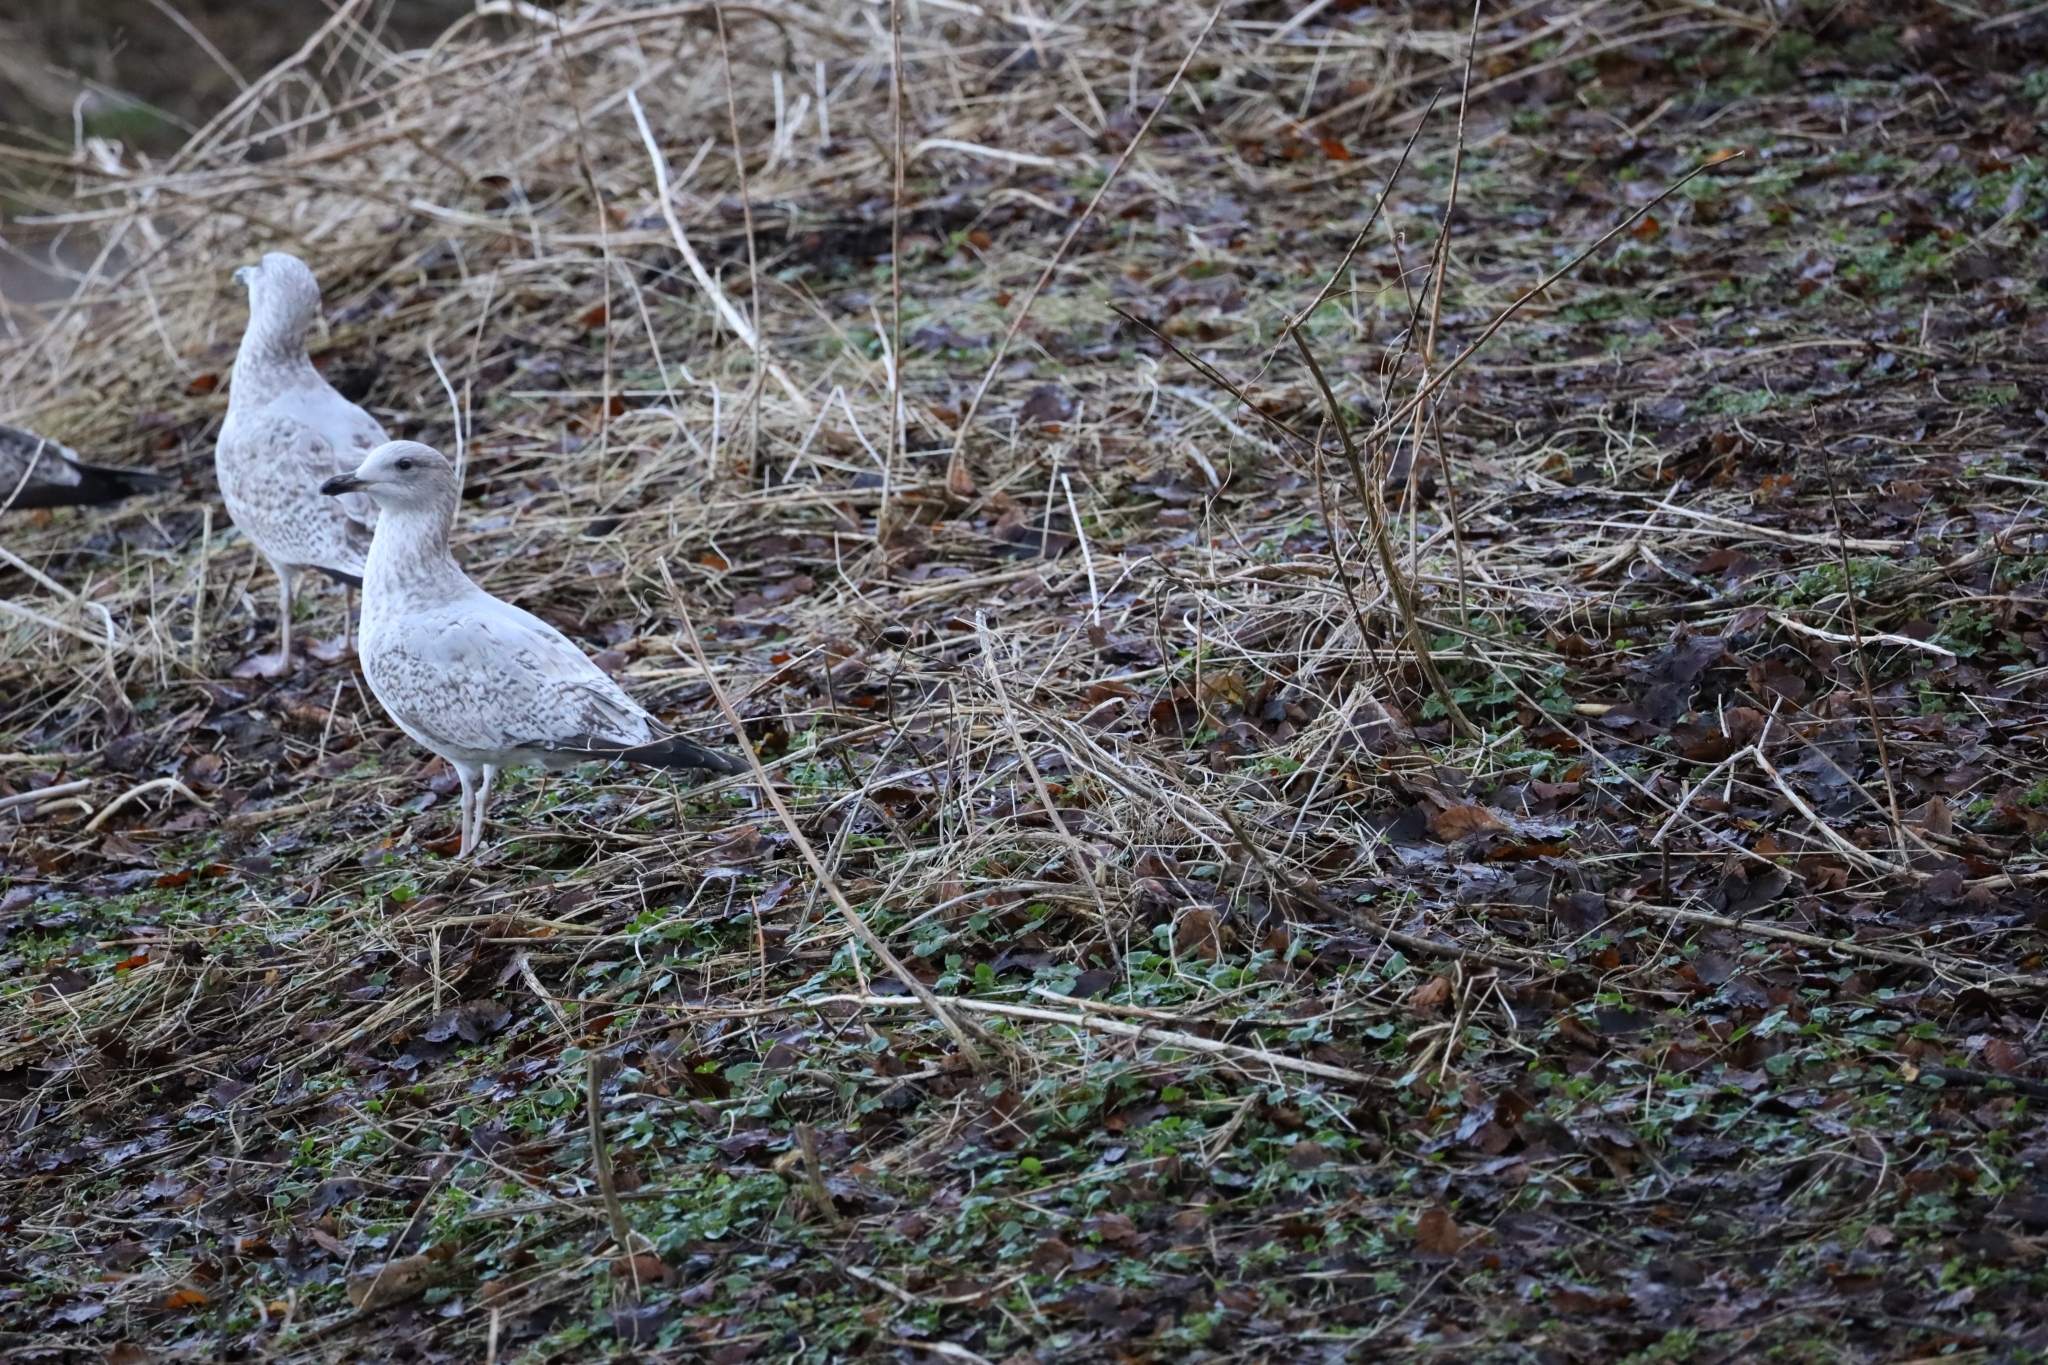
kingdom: Animalia
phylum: Chordata
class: Aves
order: Charadriiformes
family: Laridae
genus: Larus
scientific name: Larus argentatus
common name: Herring gull
